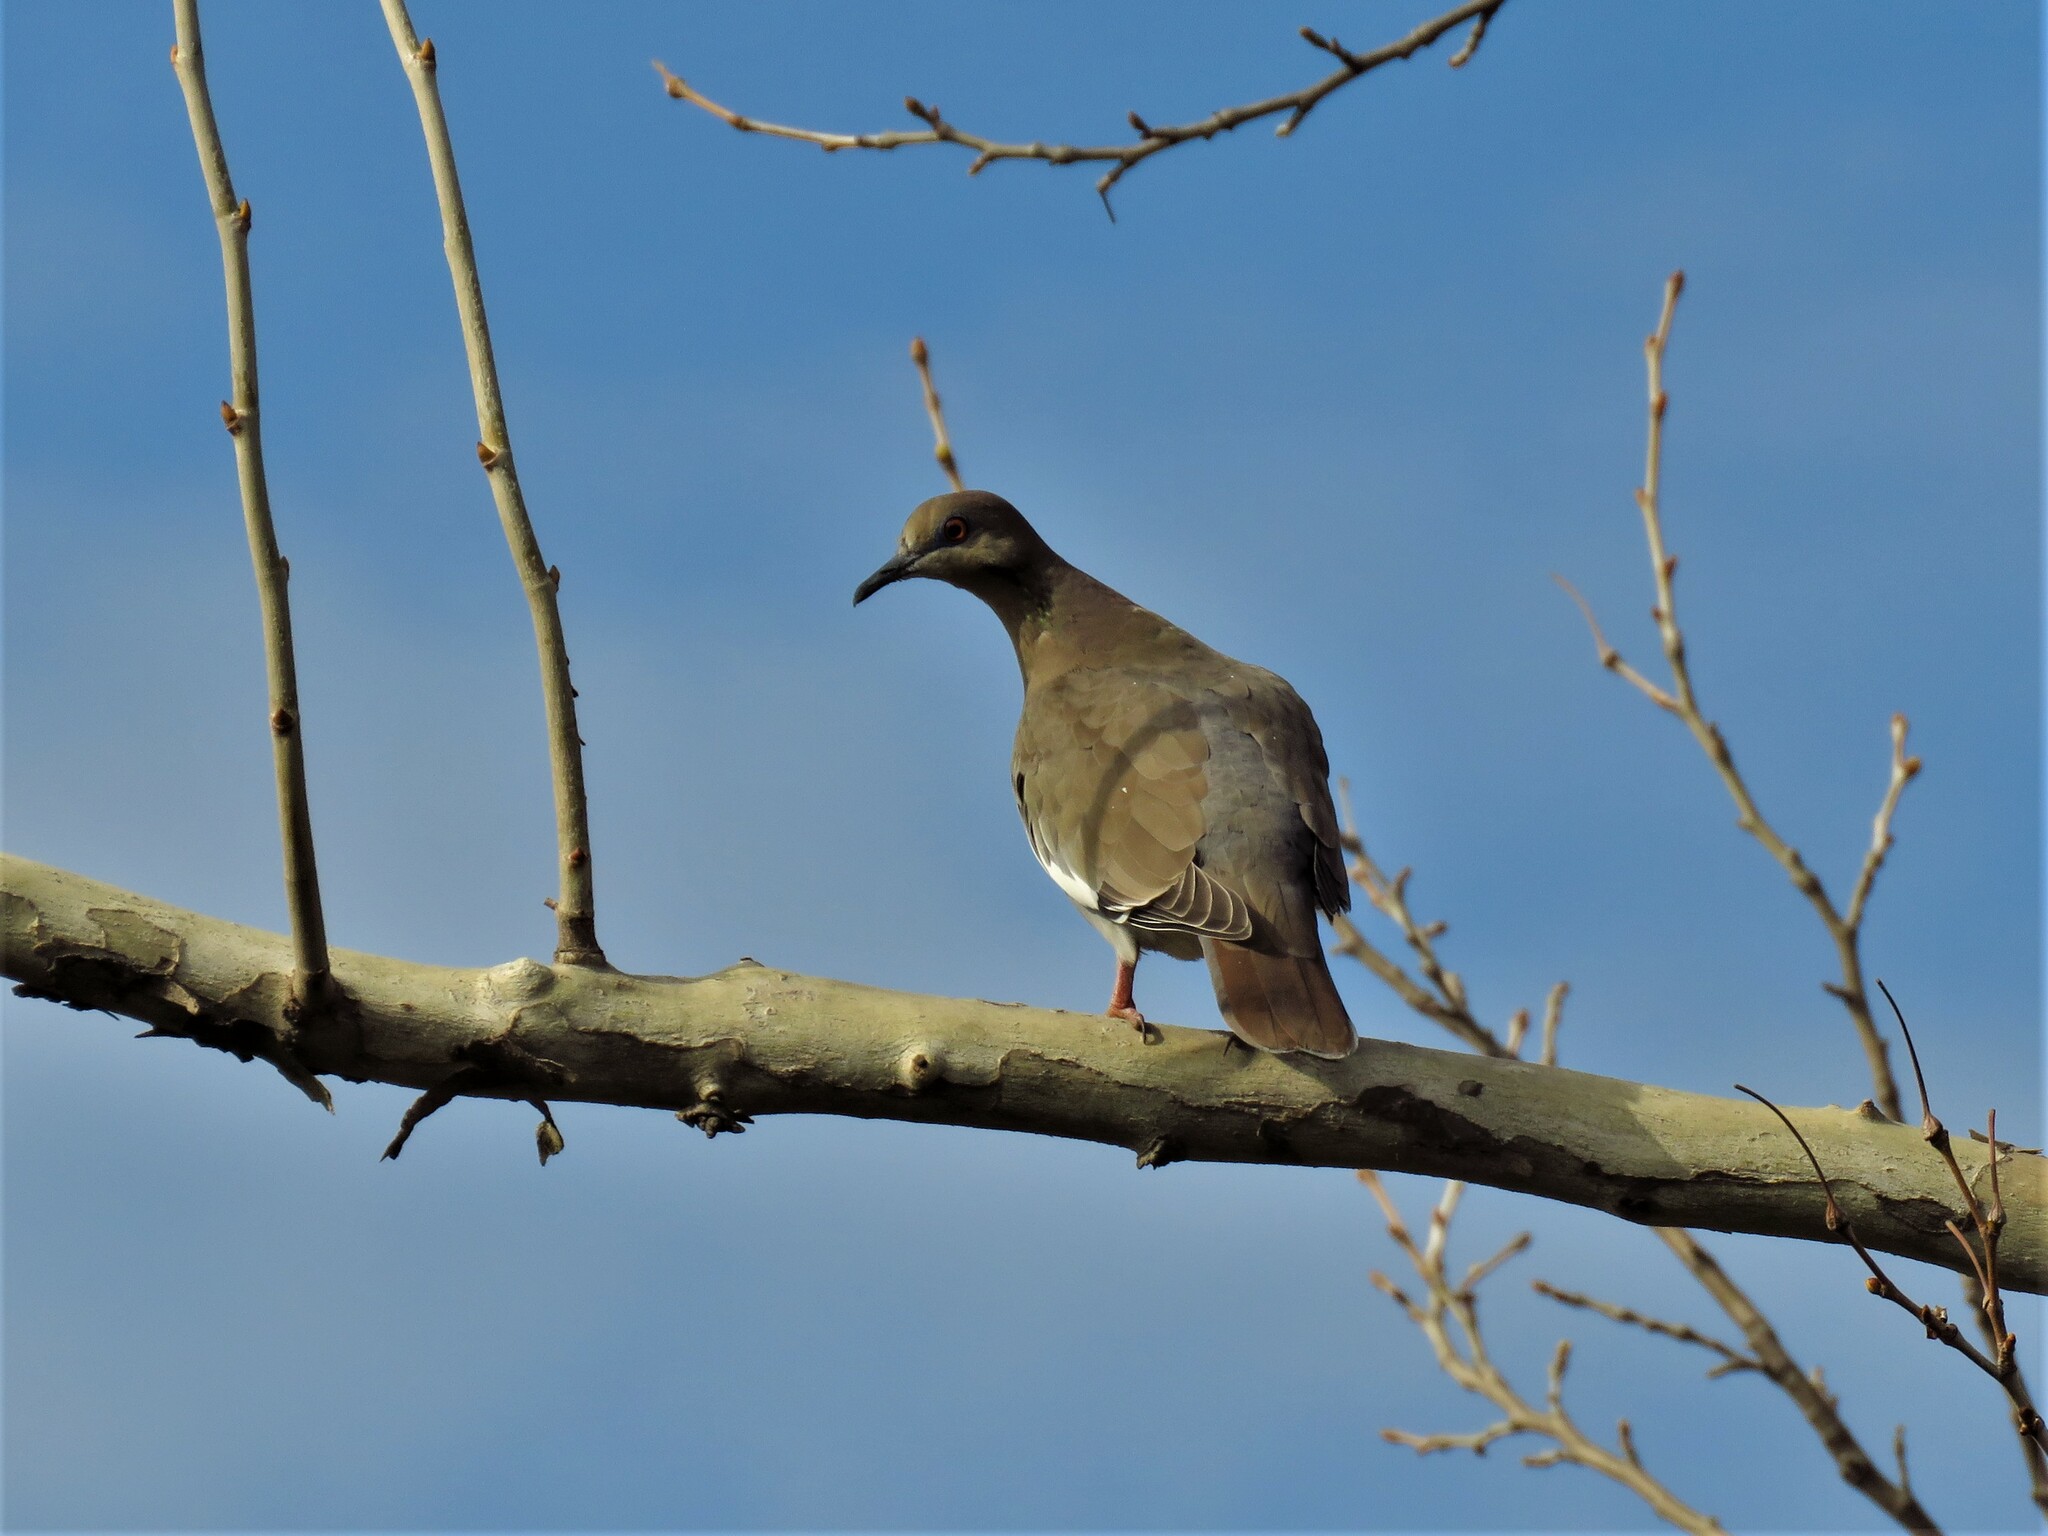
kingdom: Animalia
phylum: Chordata
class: Aves
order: Columbiformes
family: Columbidae
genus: Zenaida
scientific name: Zenaida asiatica
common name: White-winged dove
